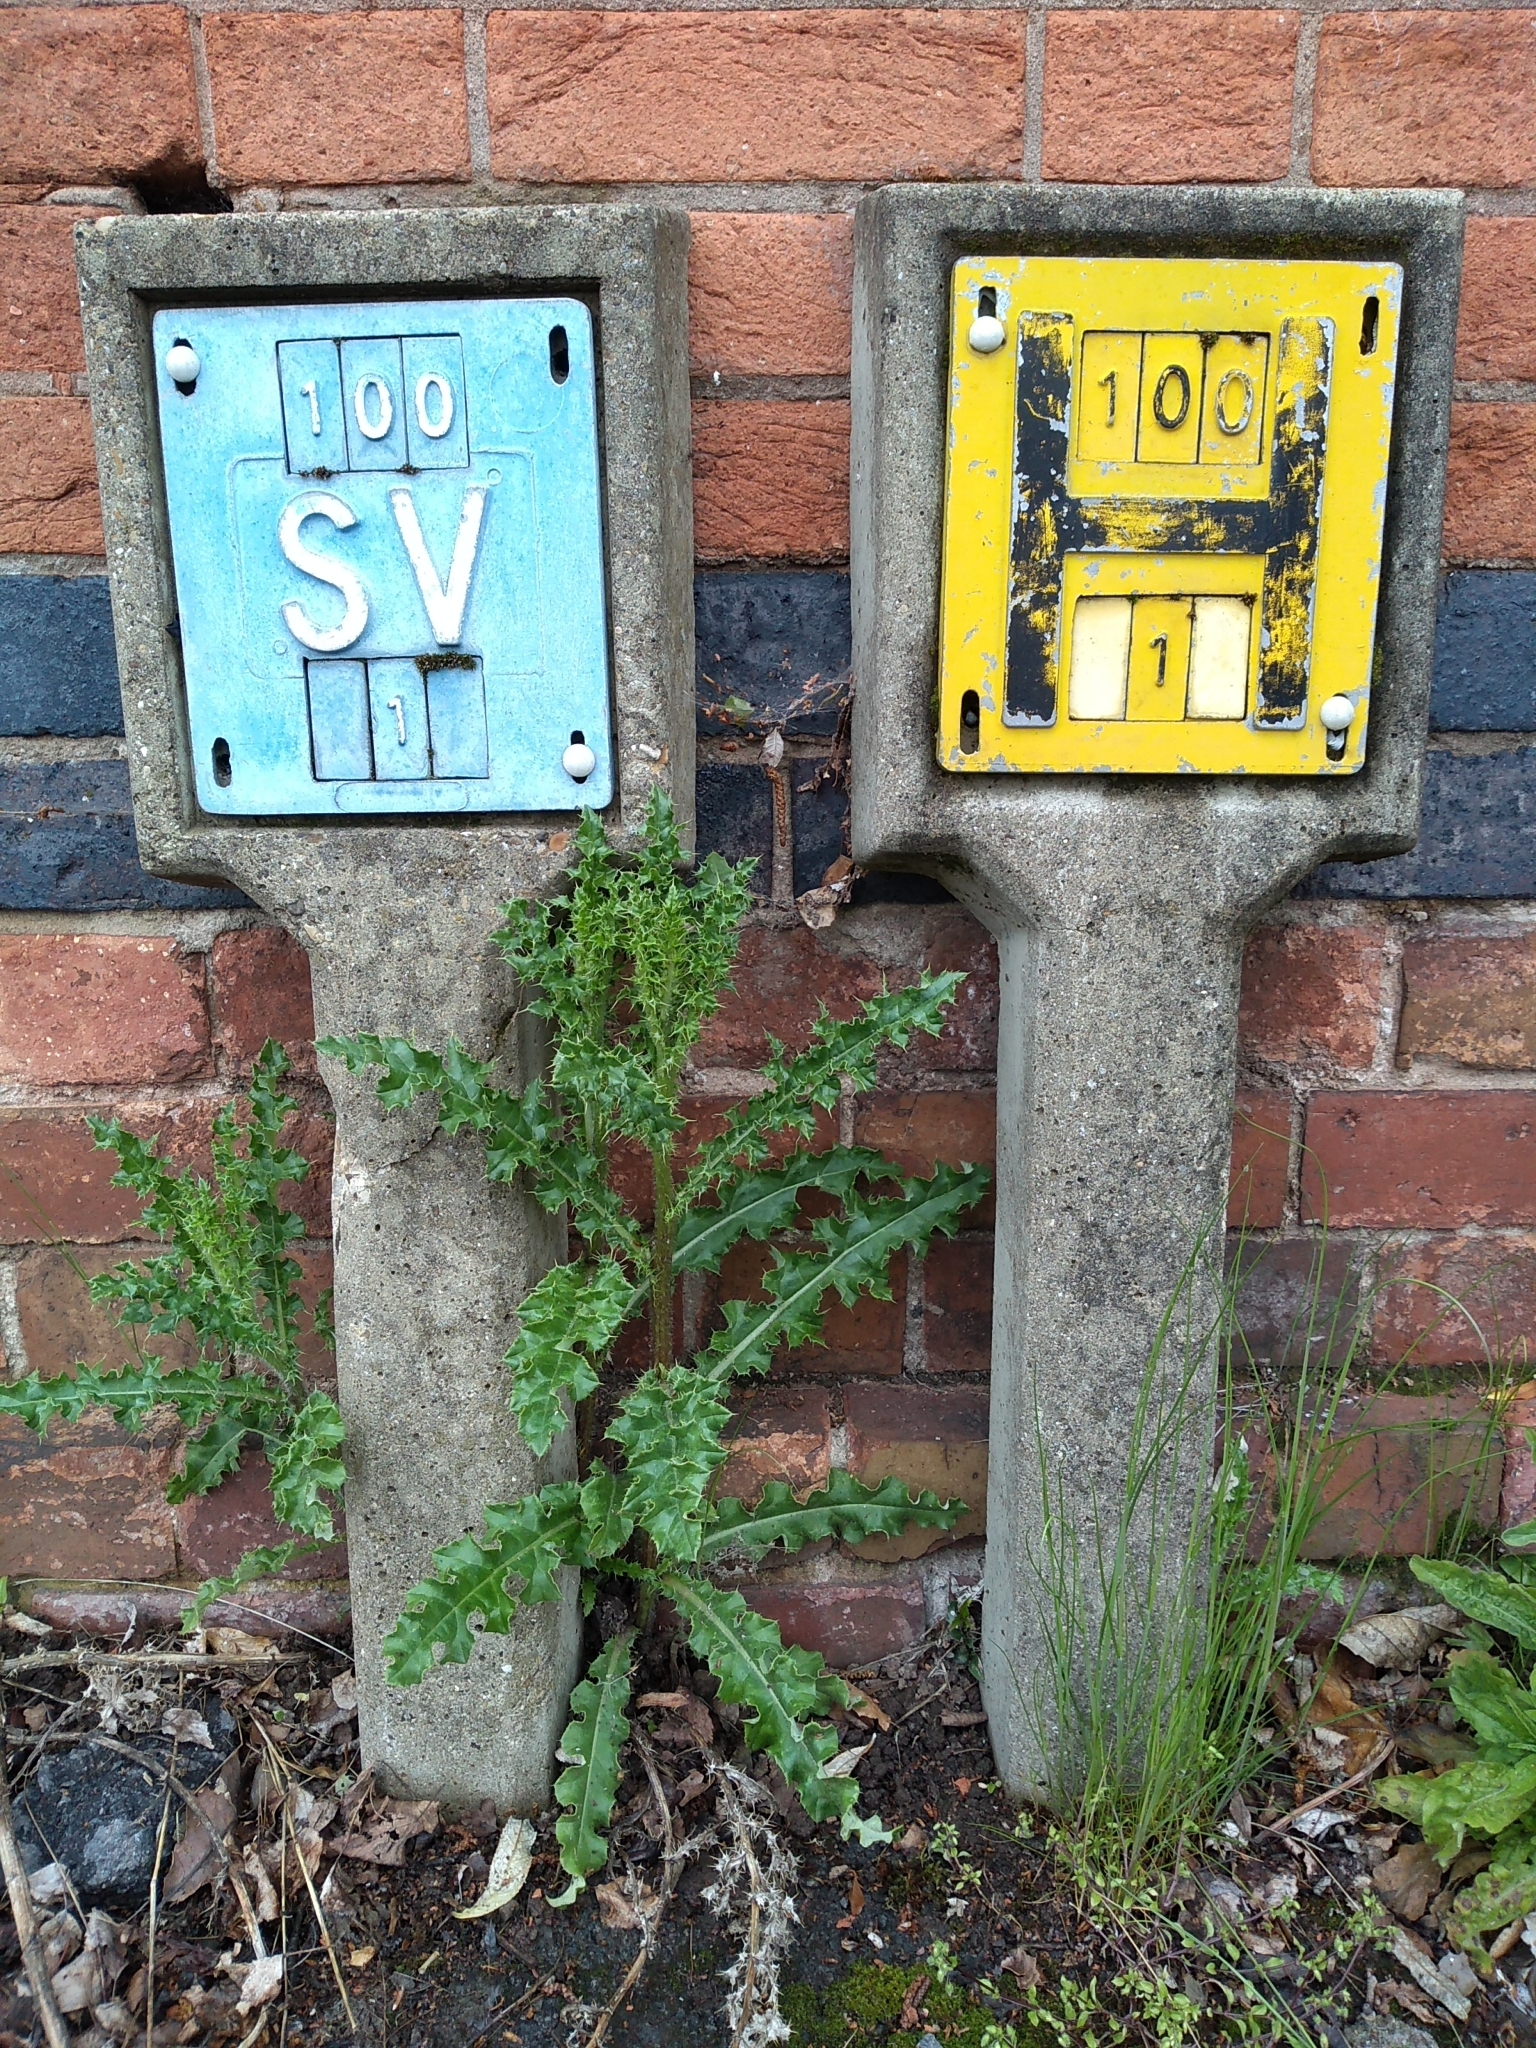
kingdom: Plantae
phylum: Tracheophyta
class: Magnoliopsida
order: Asterales
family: Asteraceae
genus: Cirsium
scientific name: Cirsium arvense
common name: Creeping thistle
